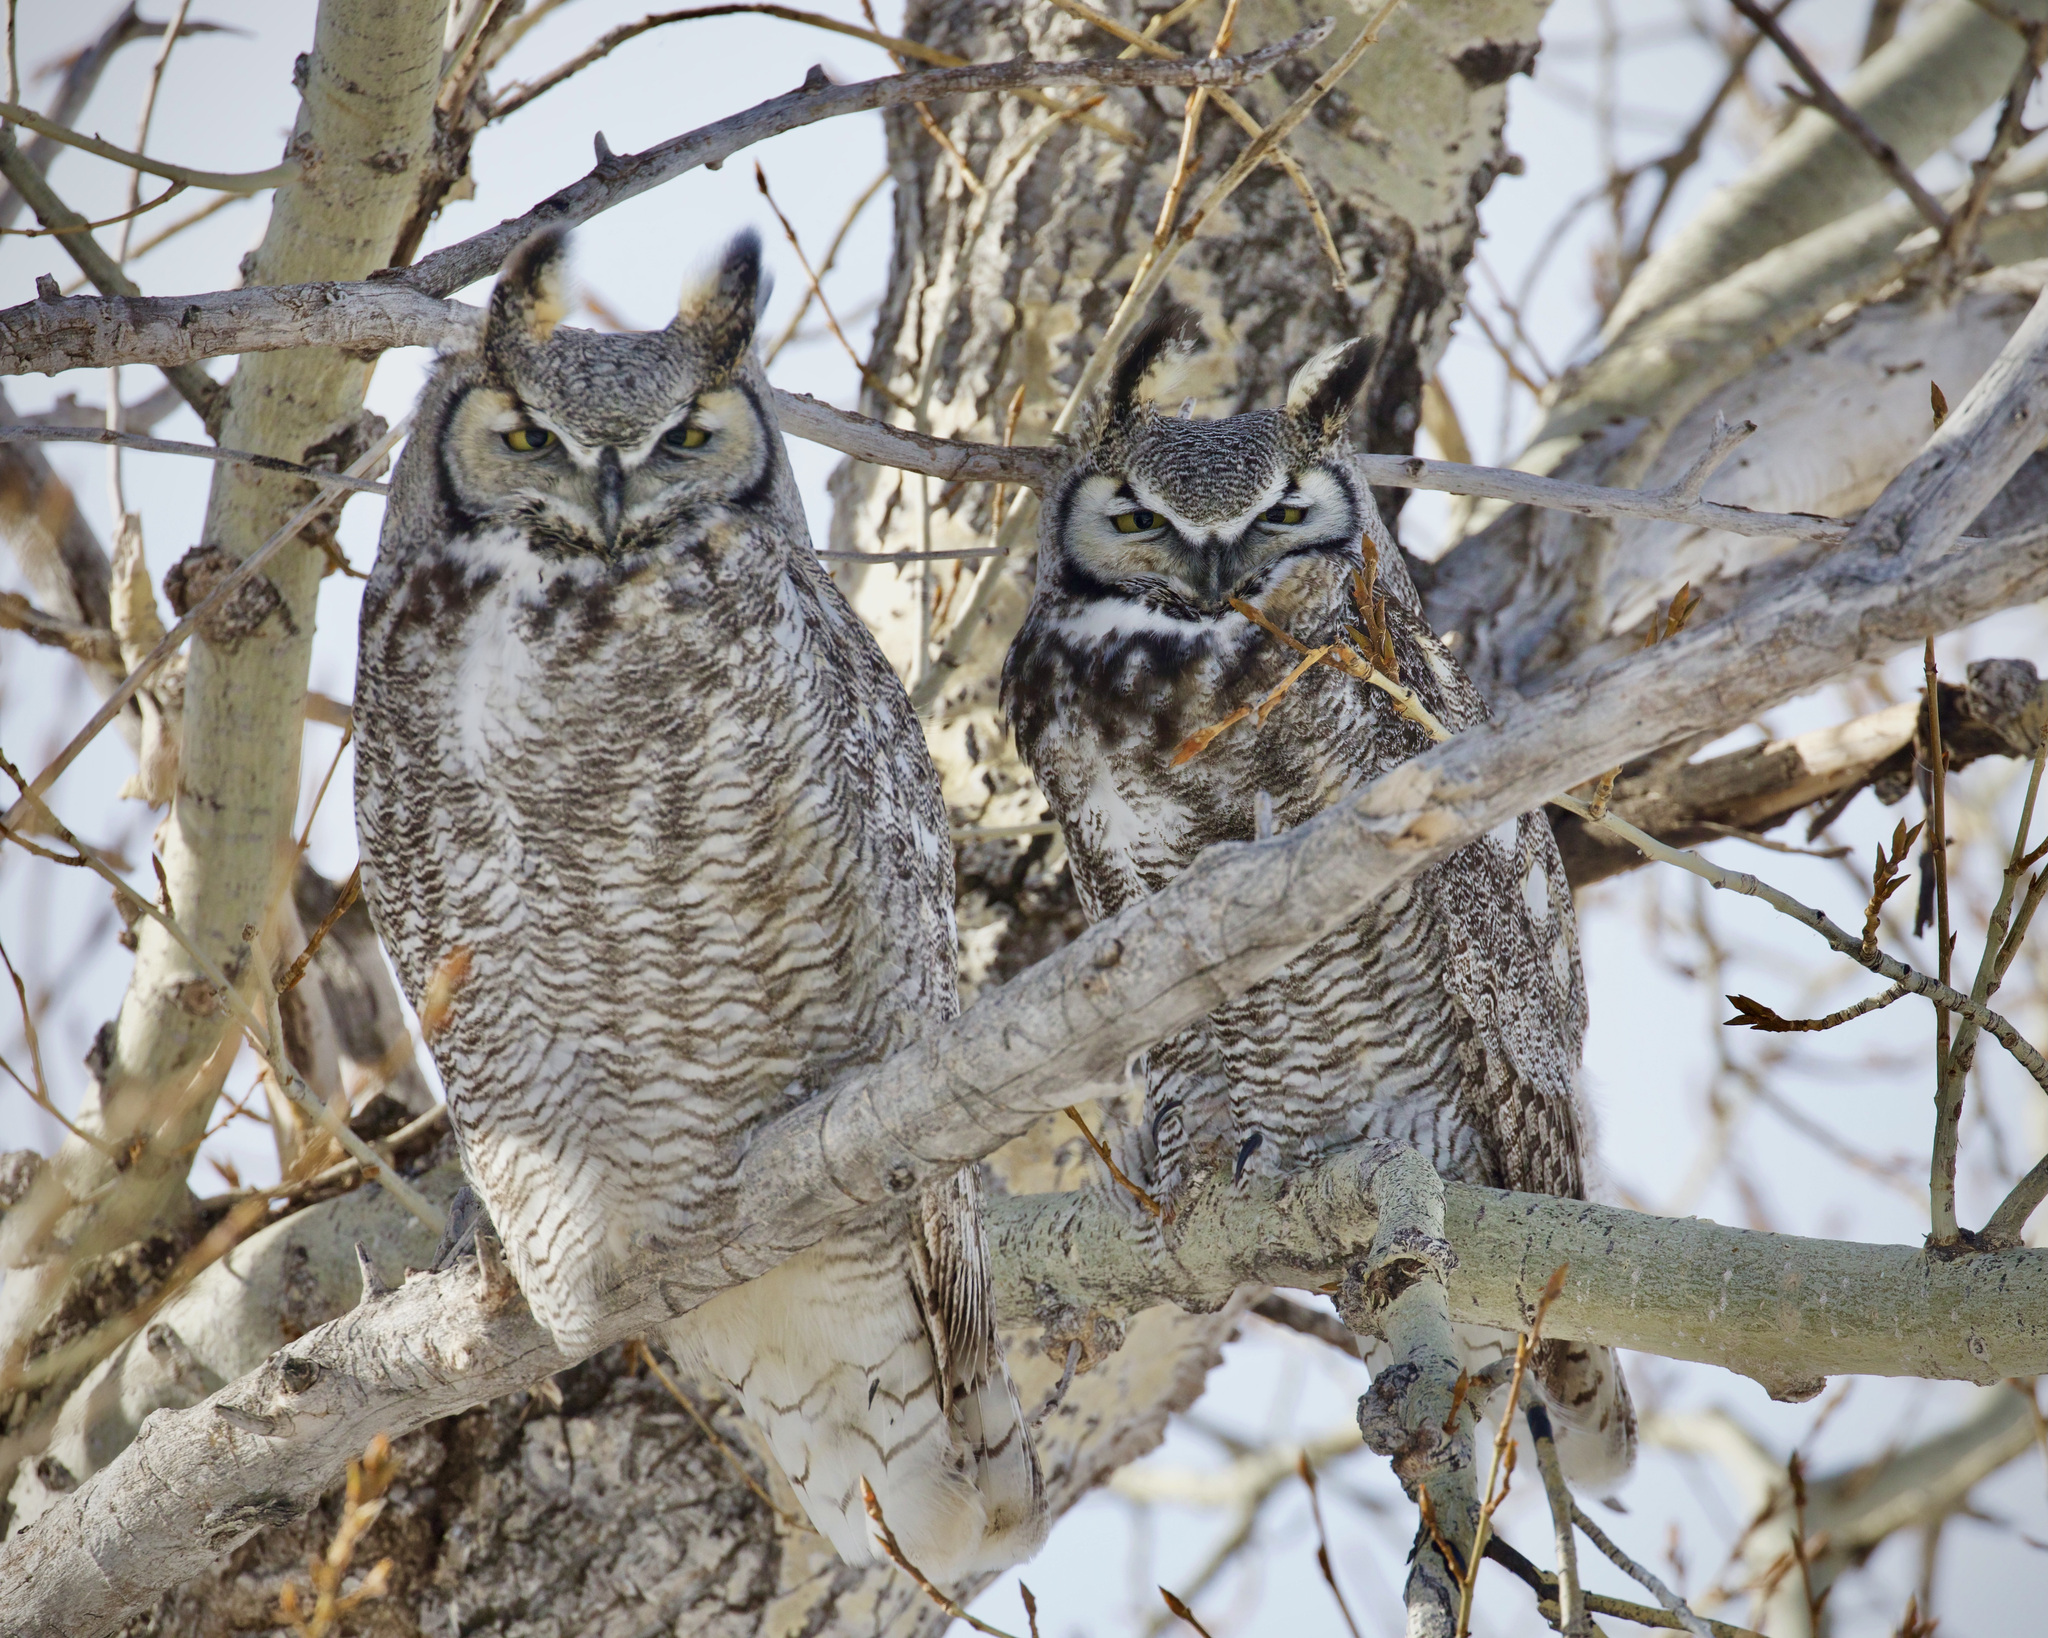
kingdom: Animalia
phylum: Chordata
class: Aves
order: Strigiformes
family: Strigidae
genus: Bubo
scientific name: Bubo virginianus
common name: Great horned owl
